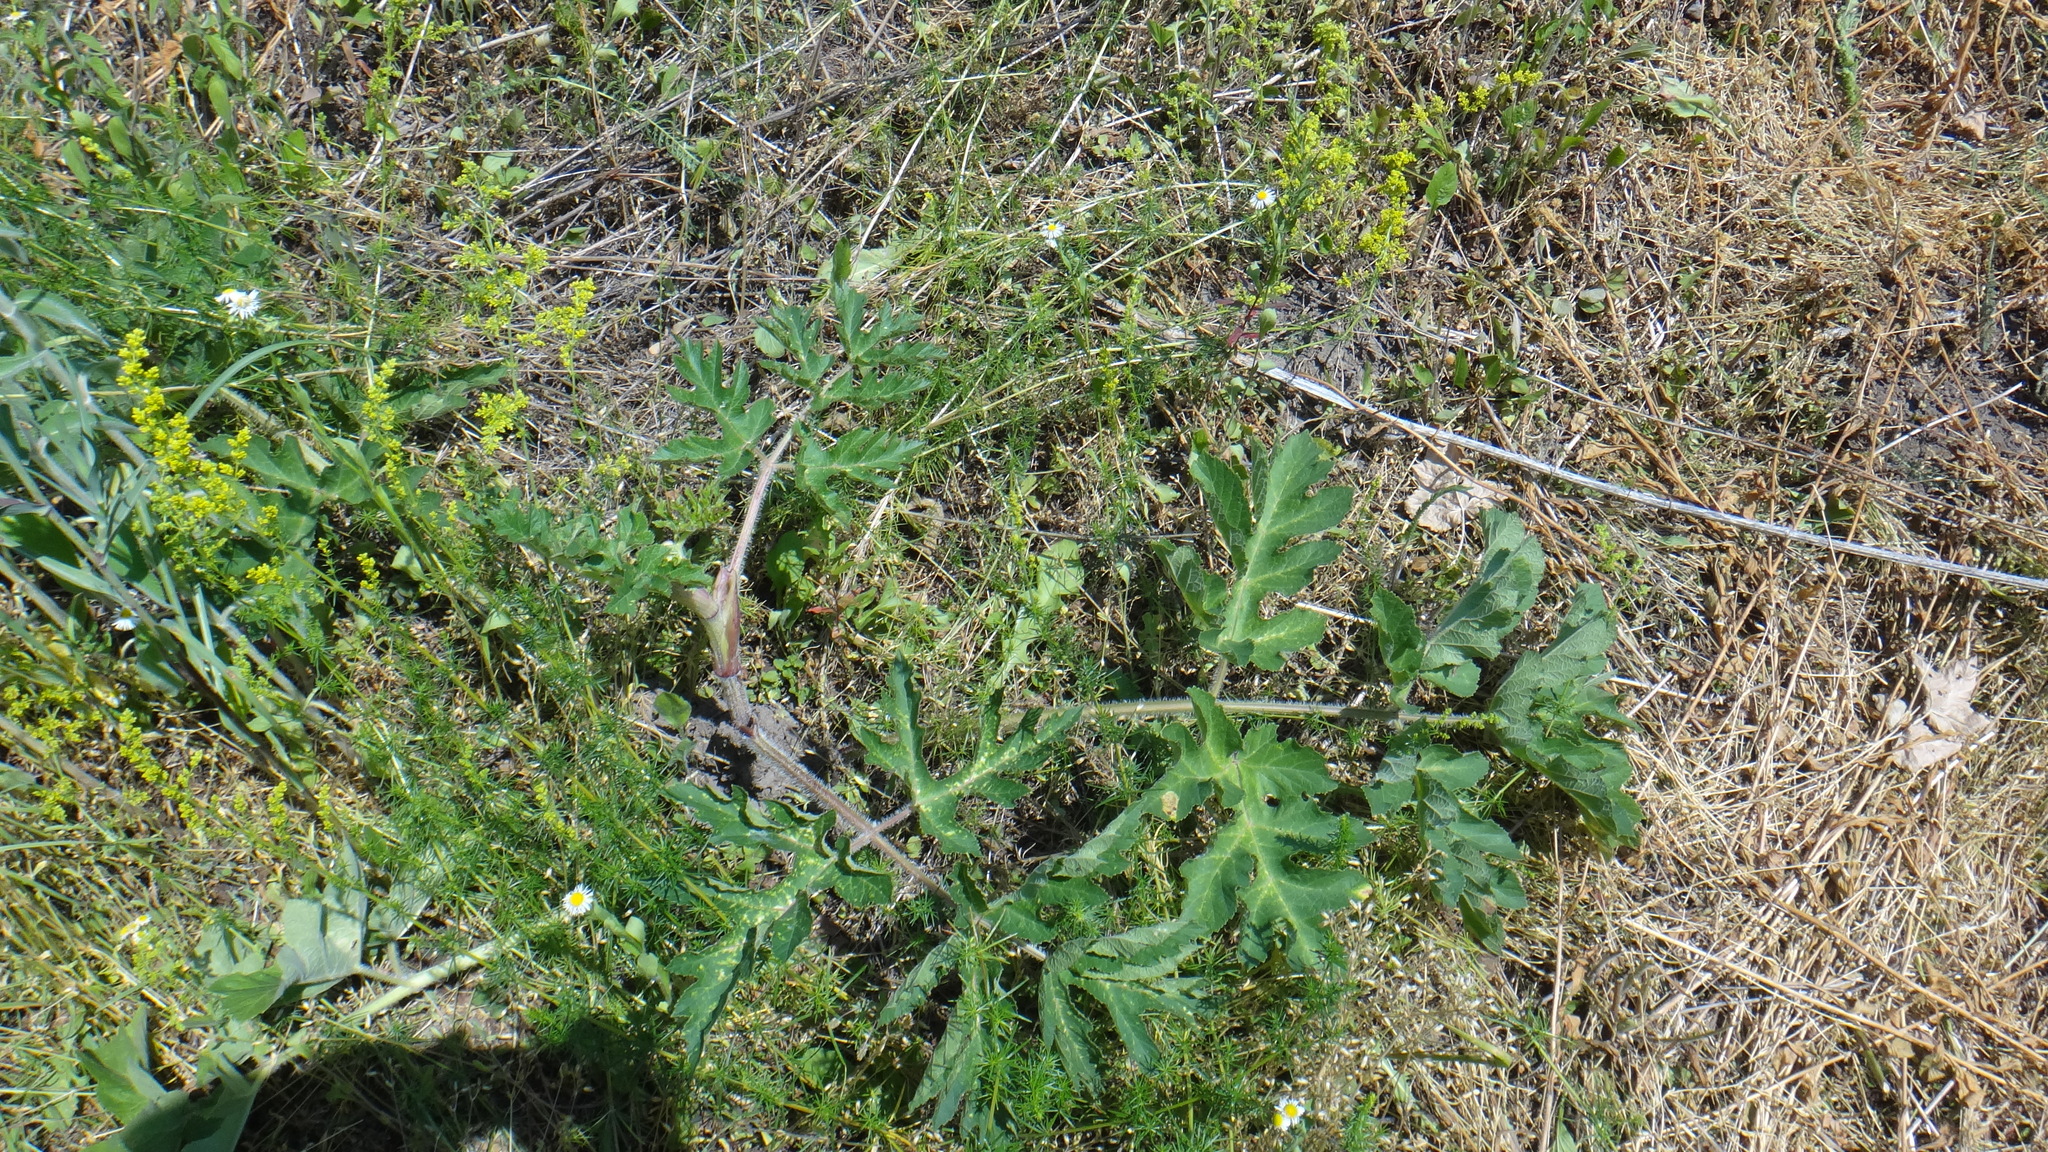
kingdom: Plantae
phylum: Tracheophyta
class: Magnoliopsida
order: Apiales
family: Apiaceae
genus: Heracleum
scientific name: Heracleum sphondylium
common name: Hogweed
